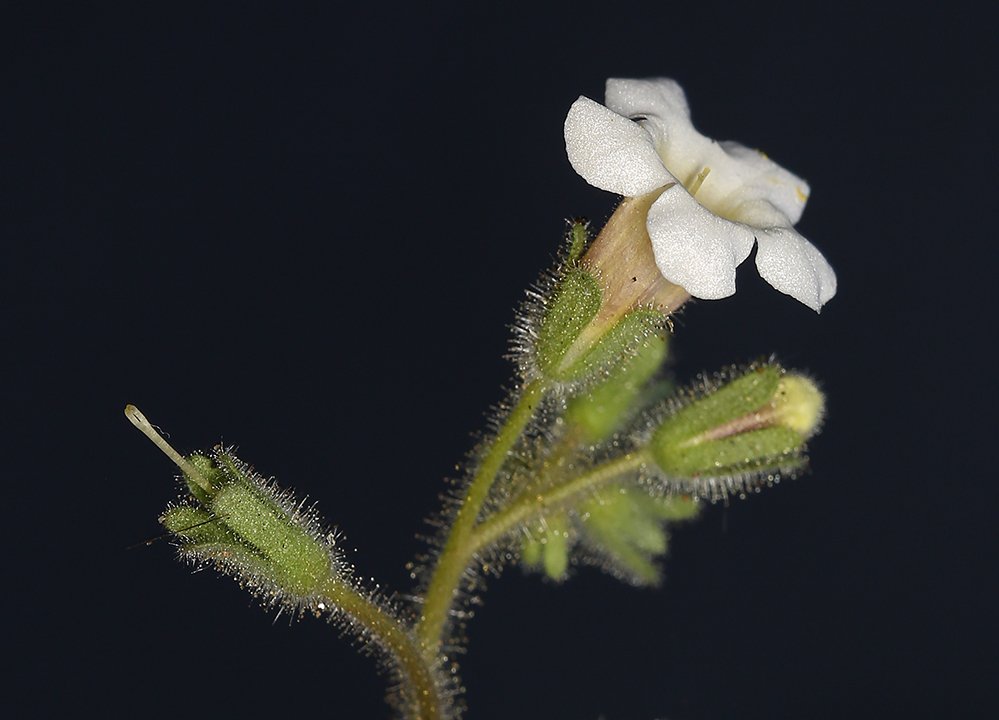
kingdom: Plantae
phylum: Tracheophyta
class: Magnoliopsida
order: Boraginales
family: Hydrophyllaceae
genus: Phacelia
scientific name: Phacelia perityloides
